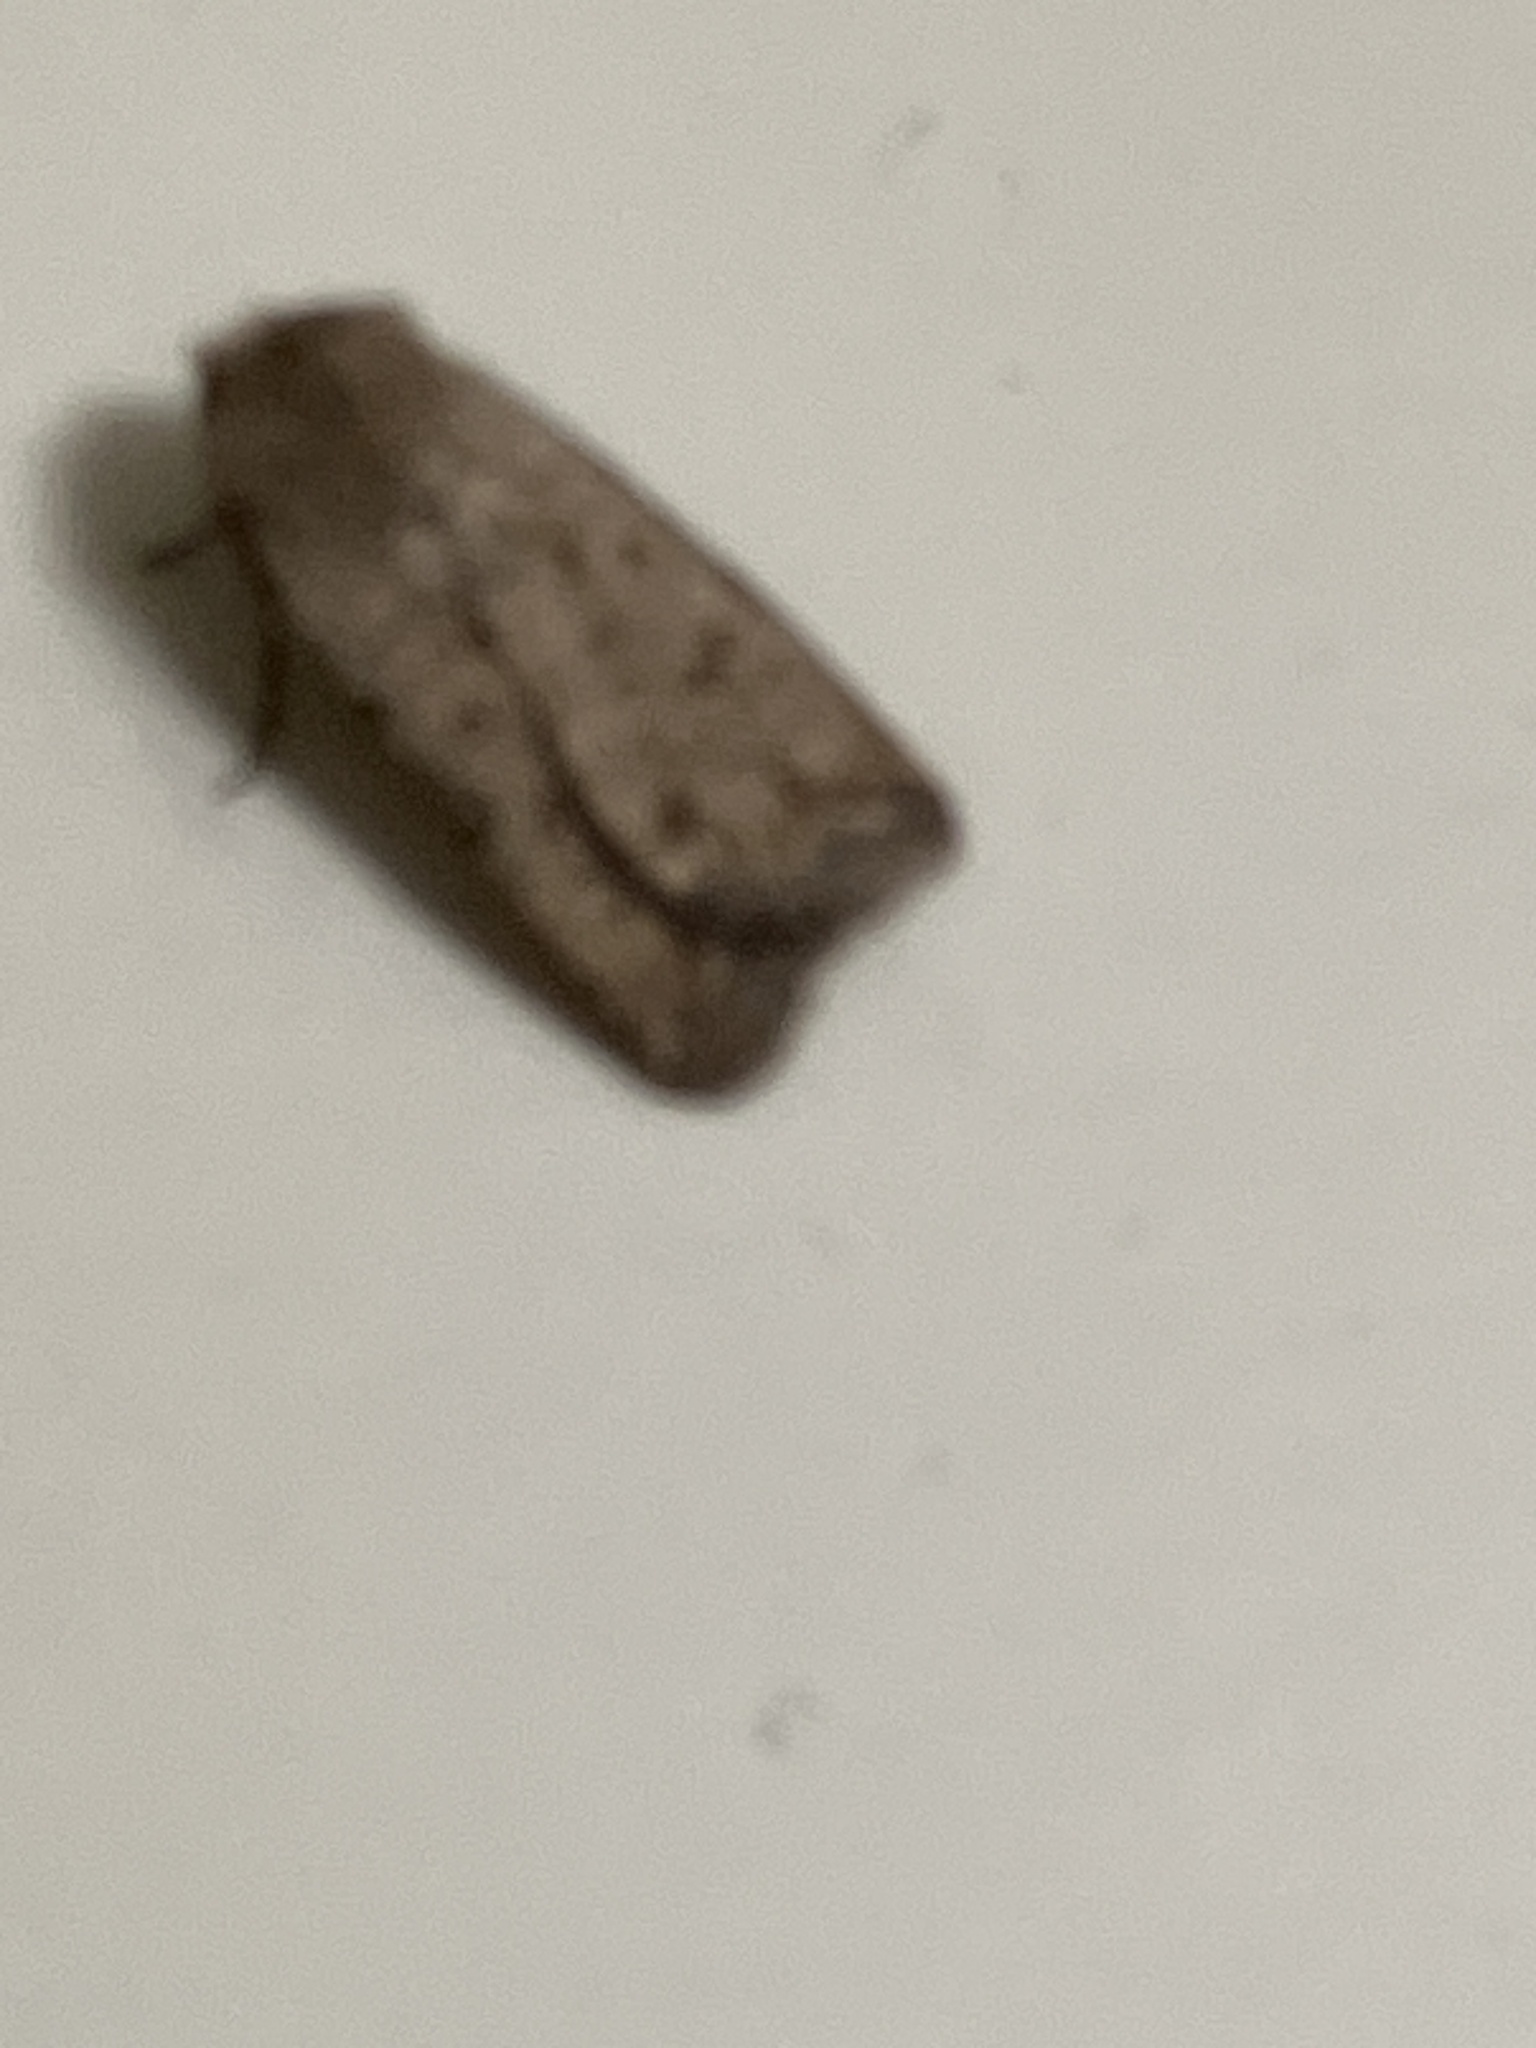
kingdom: Animalia
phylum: Arthropoda
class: Insecta
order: Lepidoptera
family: Noctuidae
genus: Caradrina
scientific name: Caradrina clavipalpis
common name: Pale mottled willow
